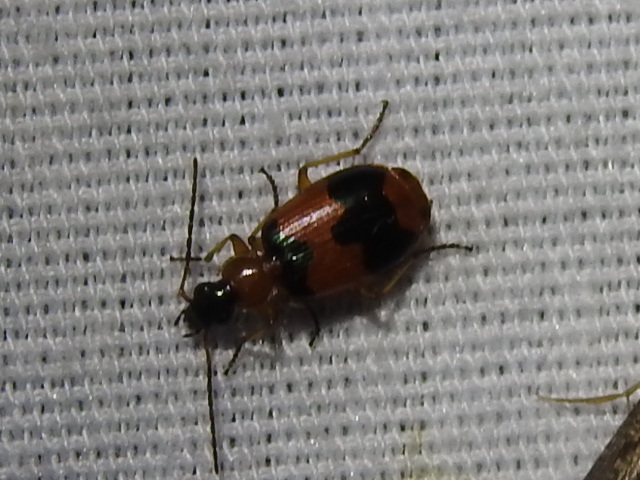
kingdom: Animalia
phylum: Arthropoda
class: Insecta
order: Coleoptera
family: Carabidae
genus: Lebia
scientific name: Lebia pulchella
